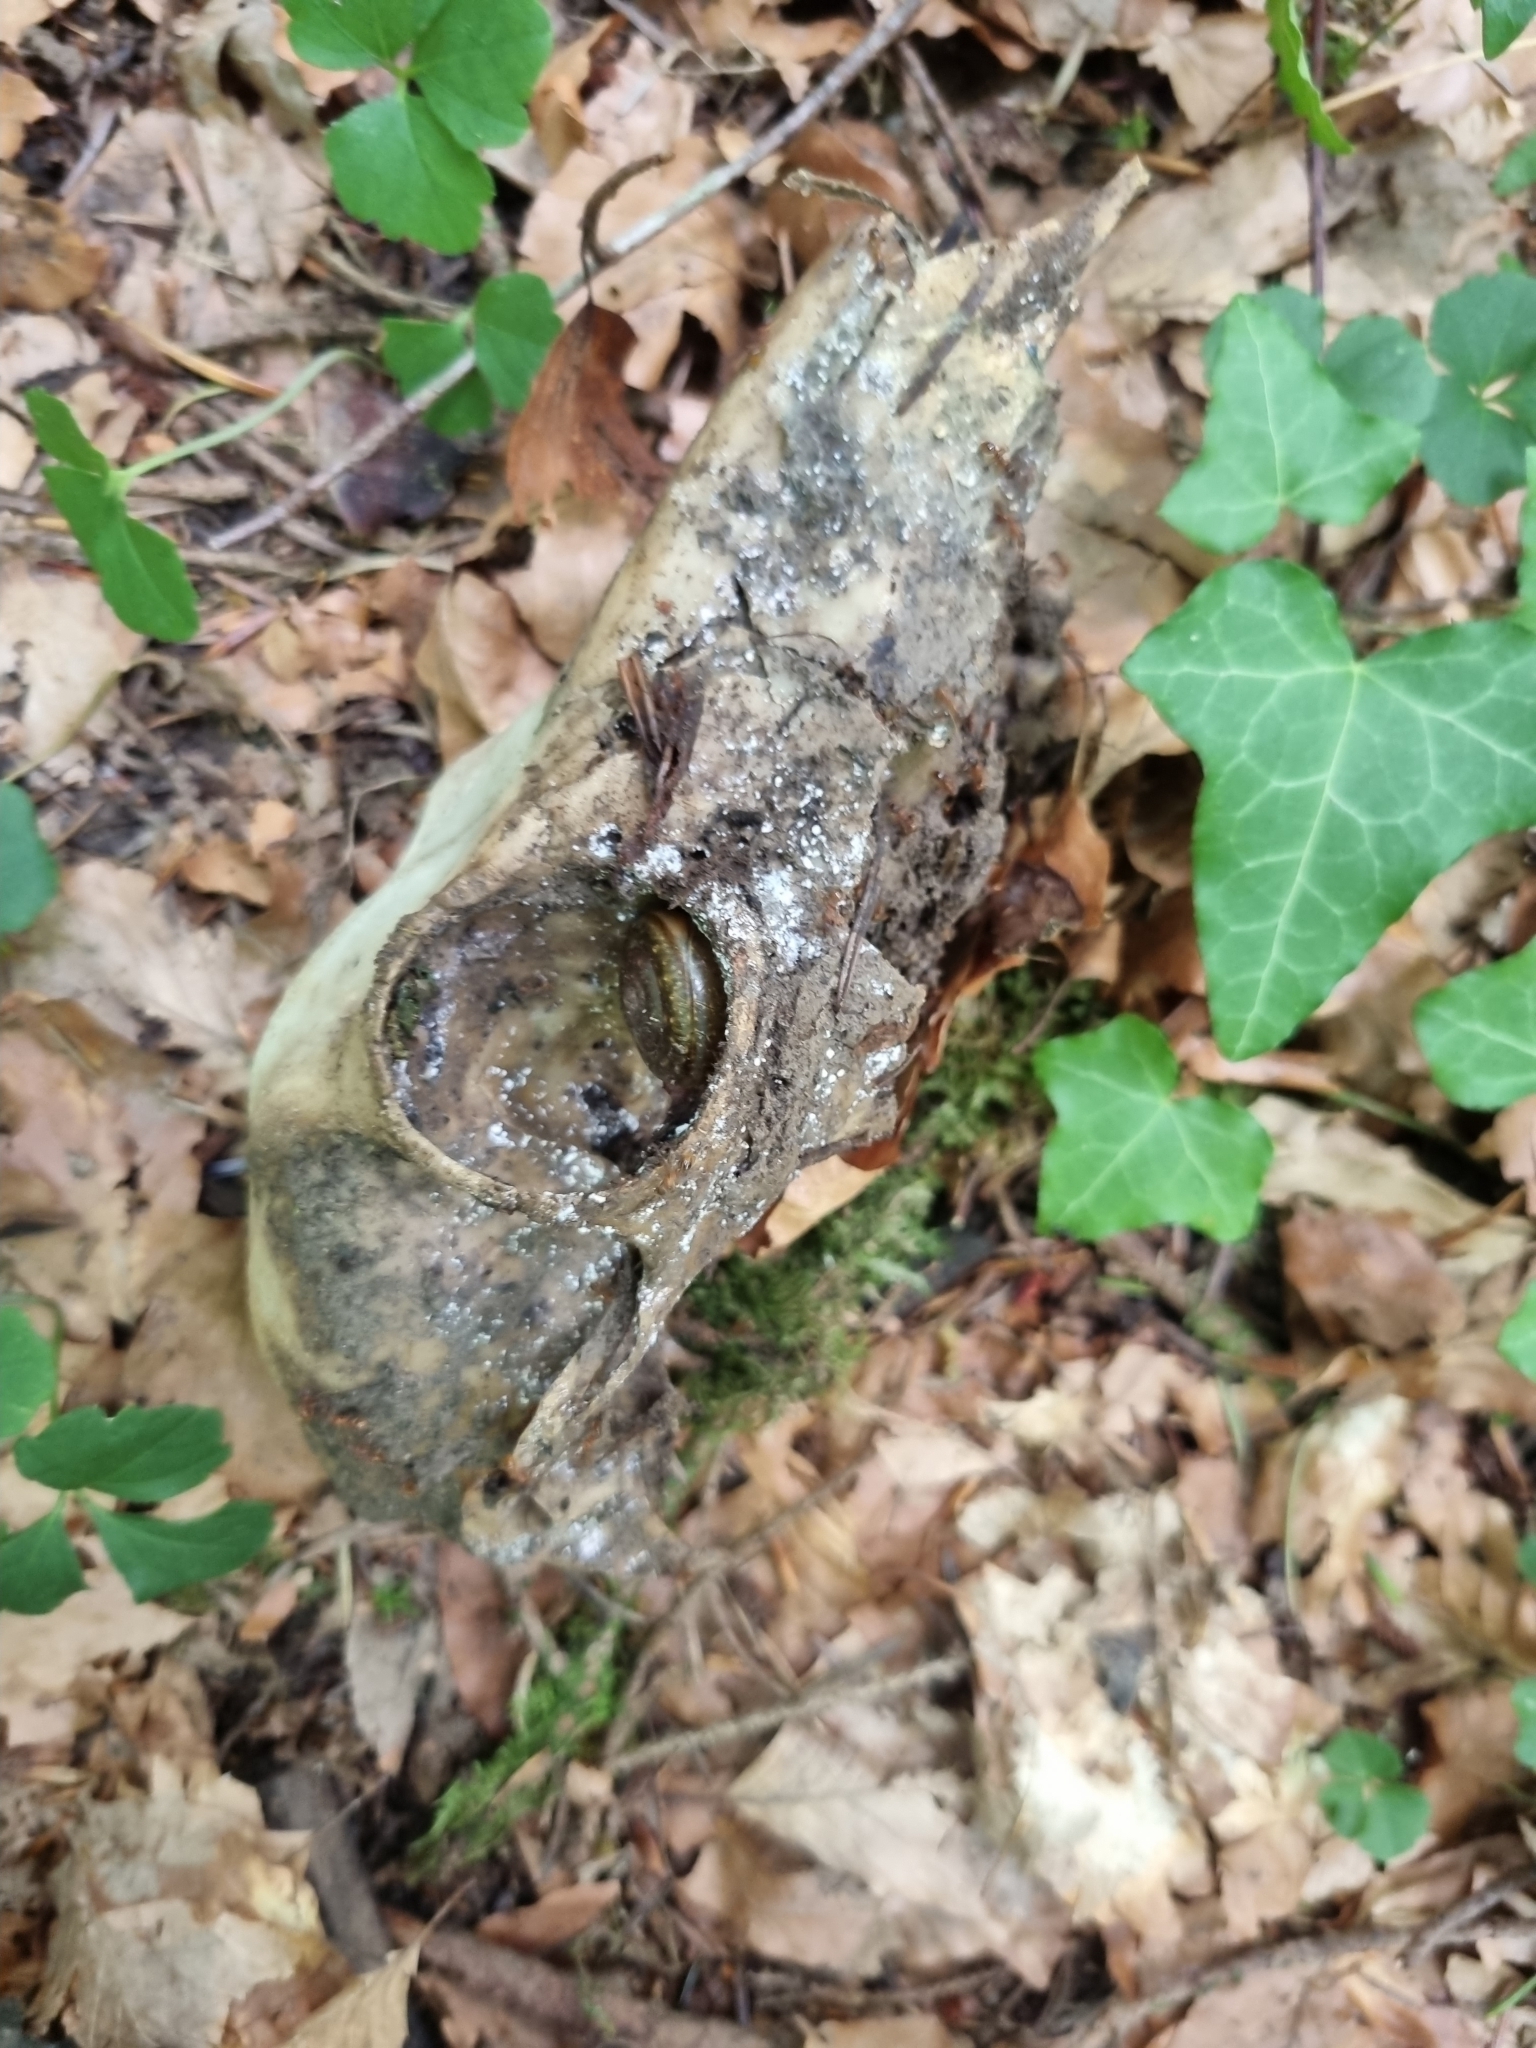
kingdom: Animalia
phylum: Chordata
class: Mammalia
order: Artiodactyla
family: Cervidae
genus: Capreolus
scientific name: Capreolus capreolus
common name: Western roe deer
